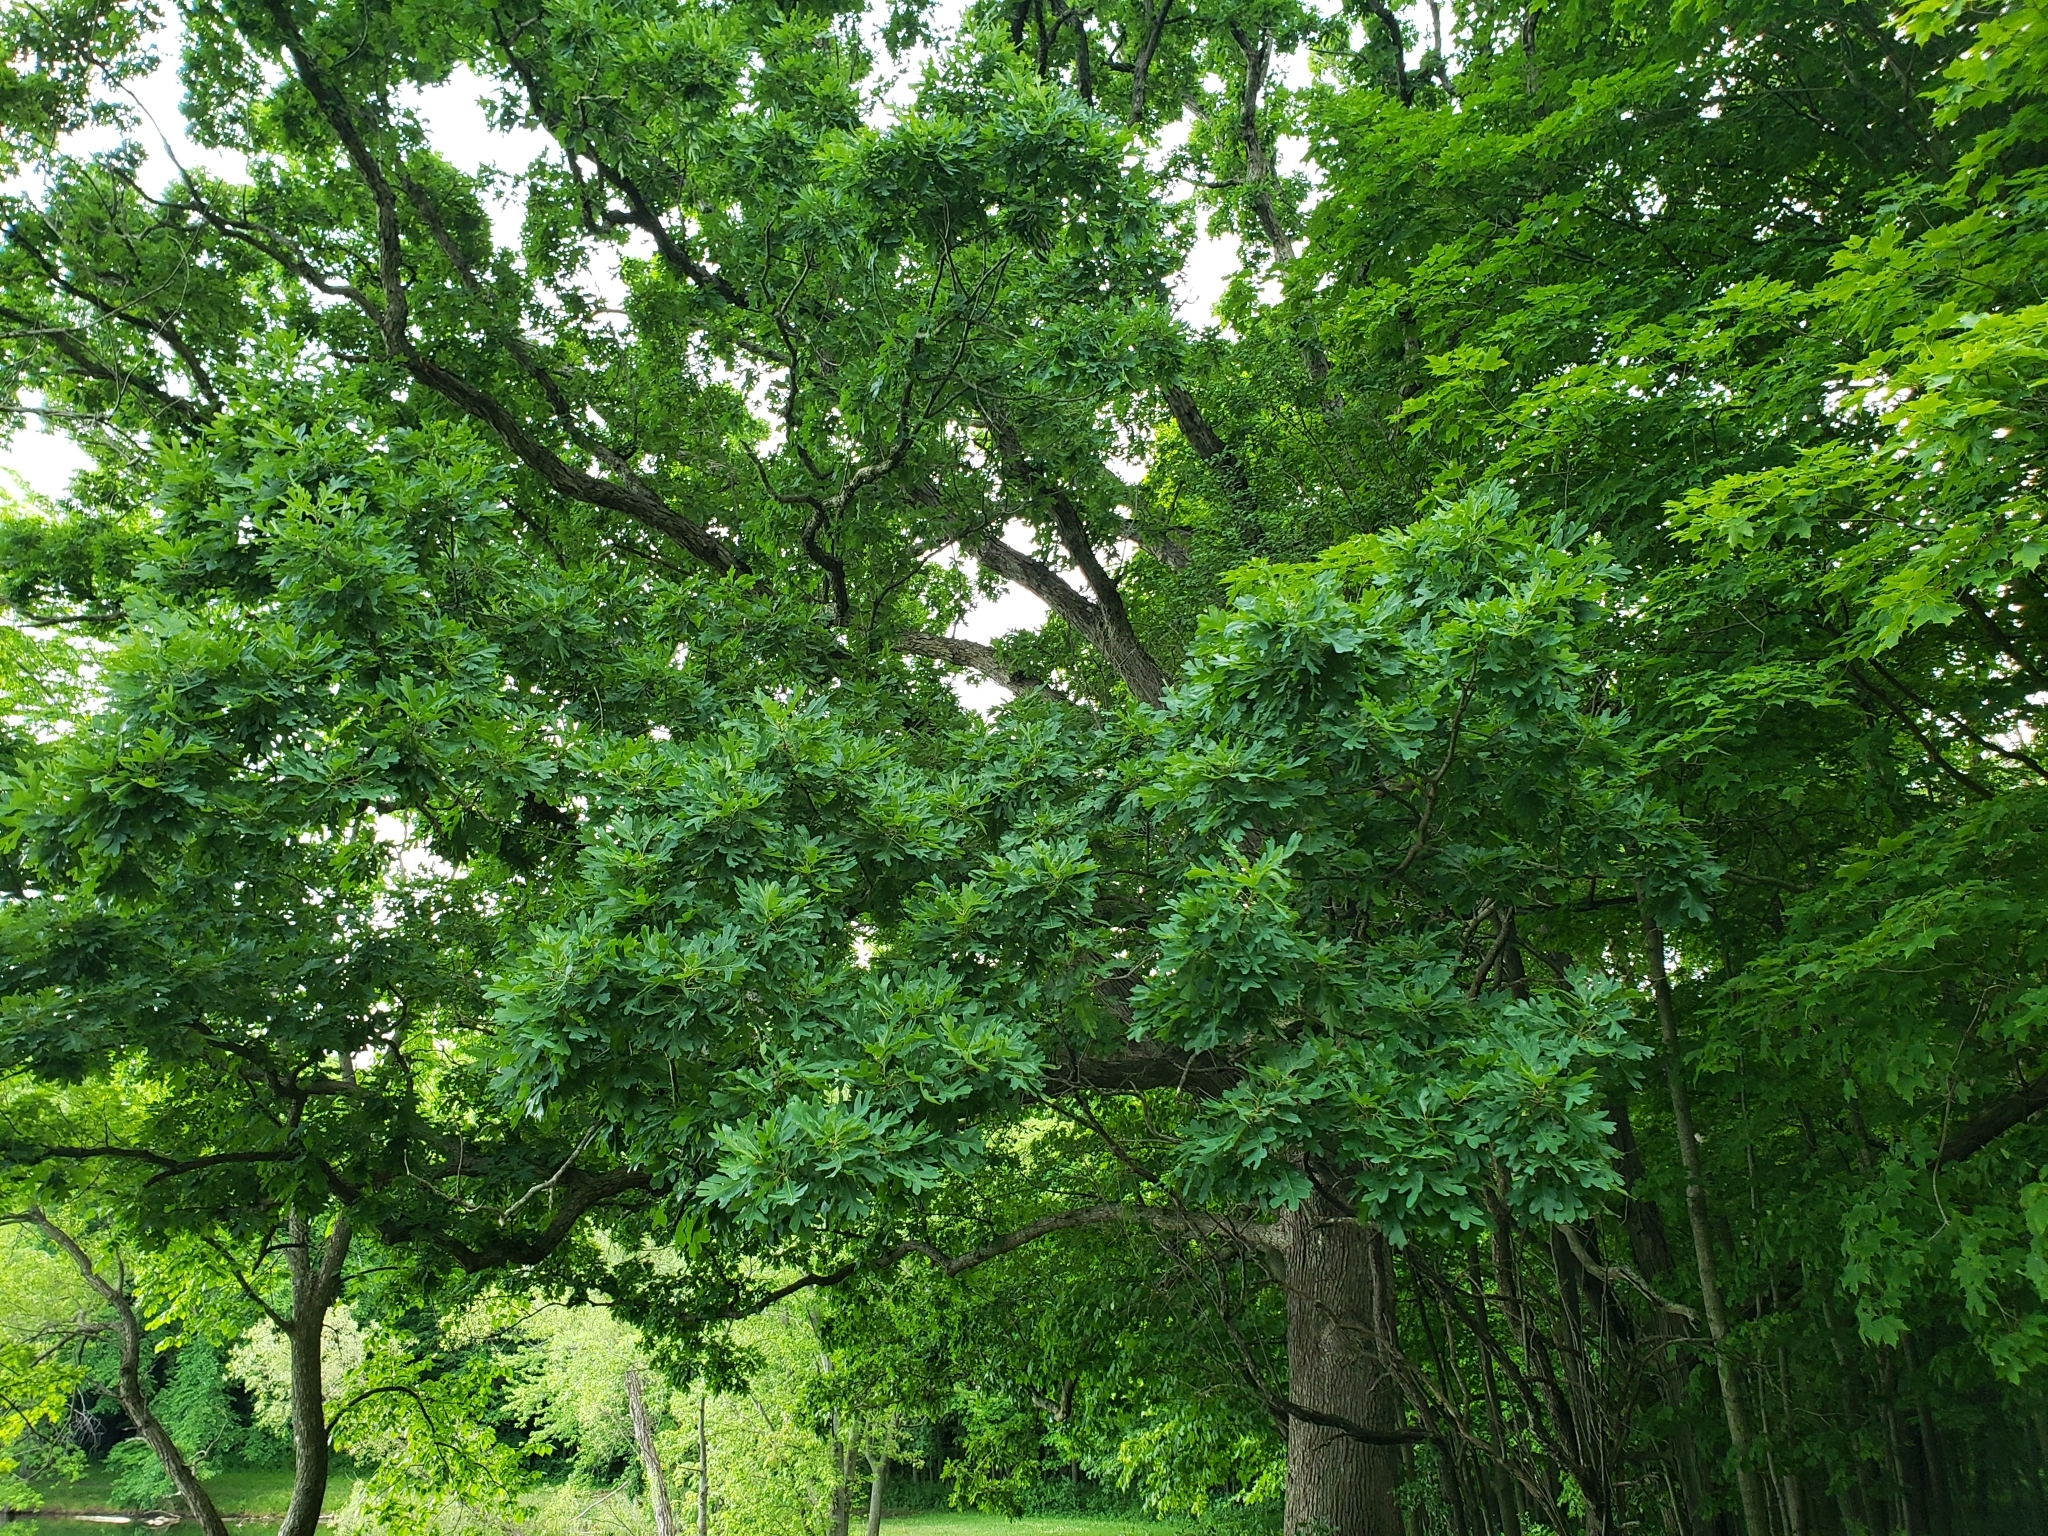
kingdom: Plantae
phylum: Tracheophyta
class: Magnoliopsida
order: Fagales
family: Fagaceae
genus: Quercus
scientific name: Quercus alba
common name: White oak
